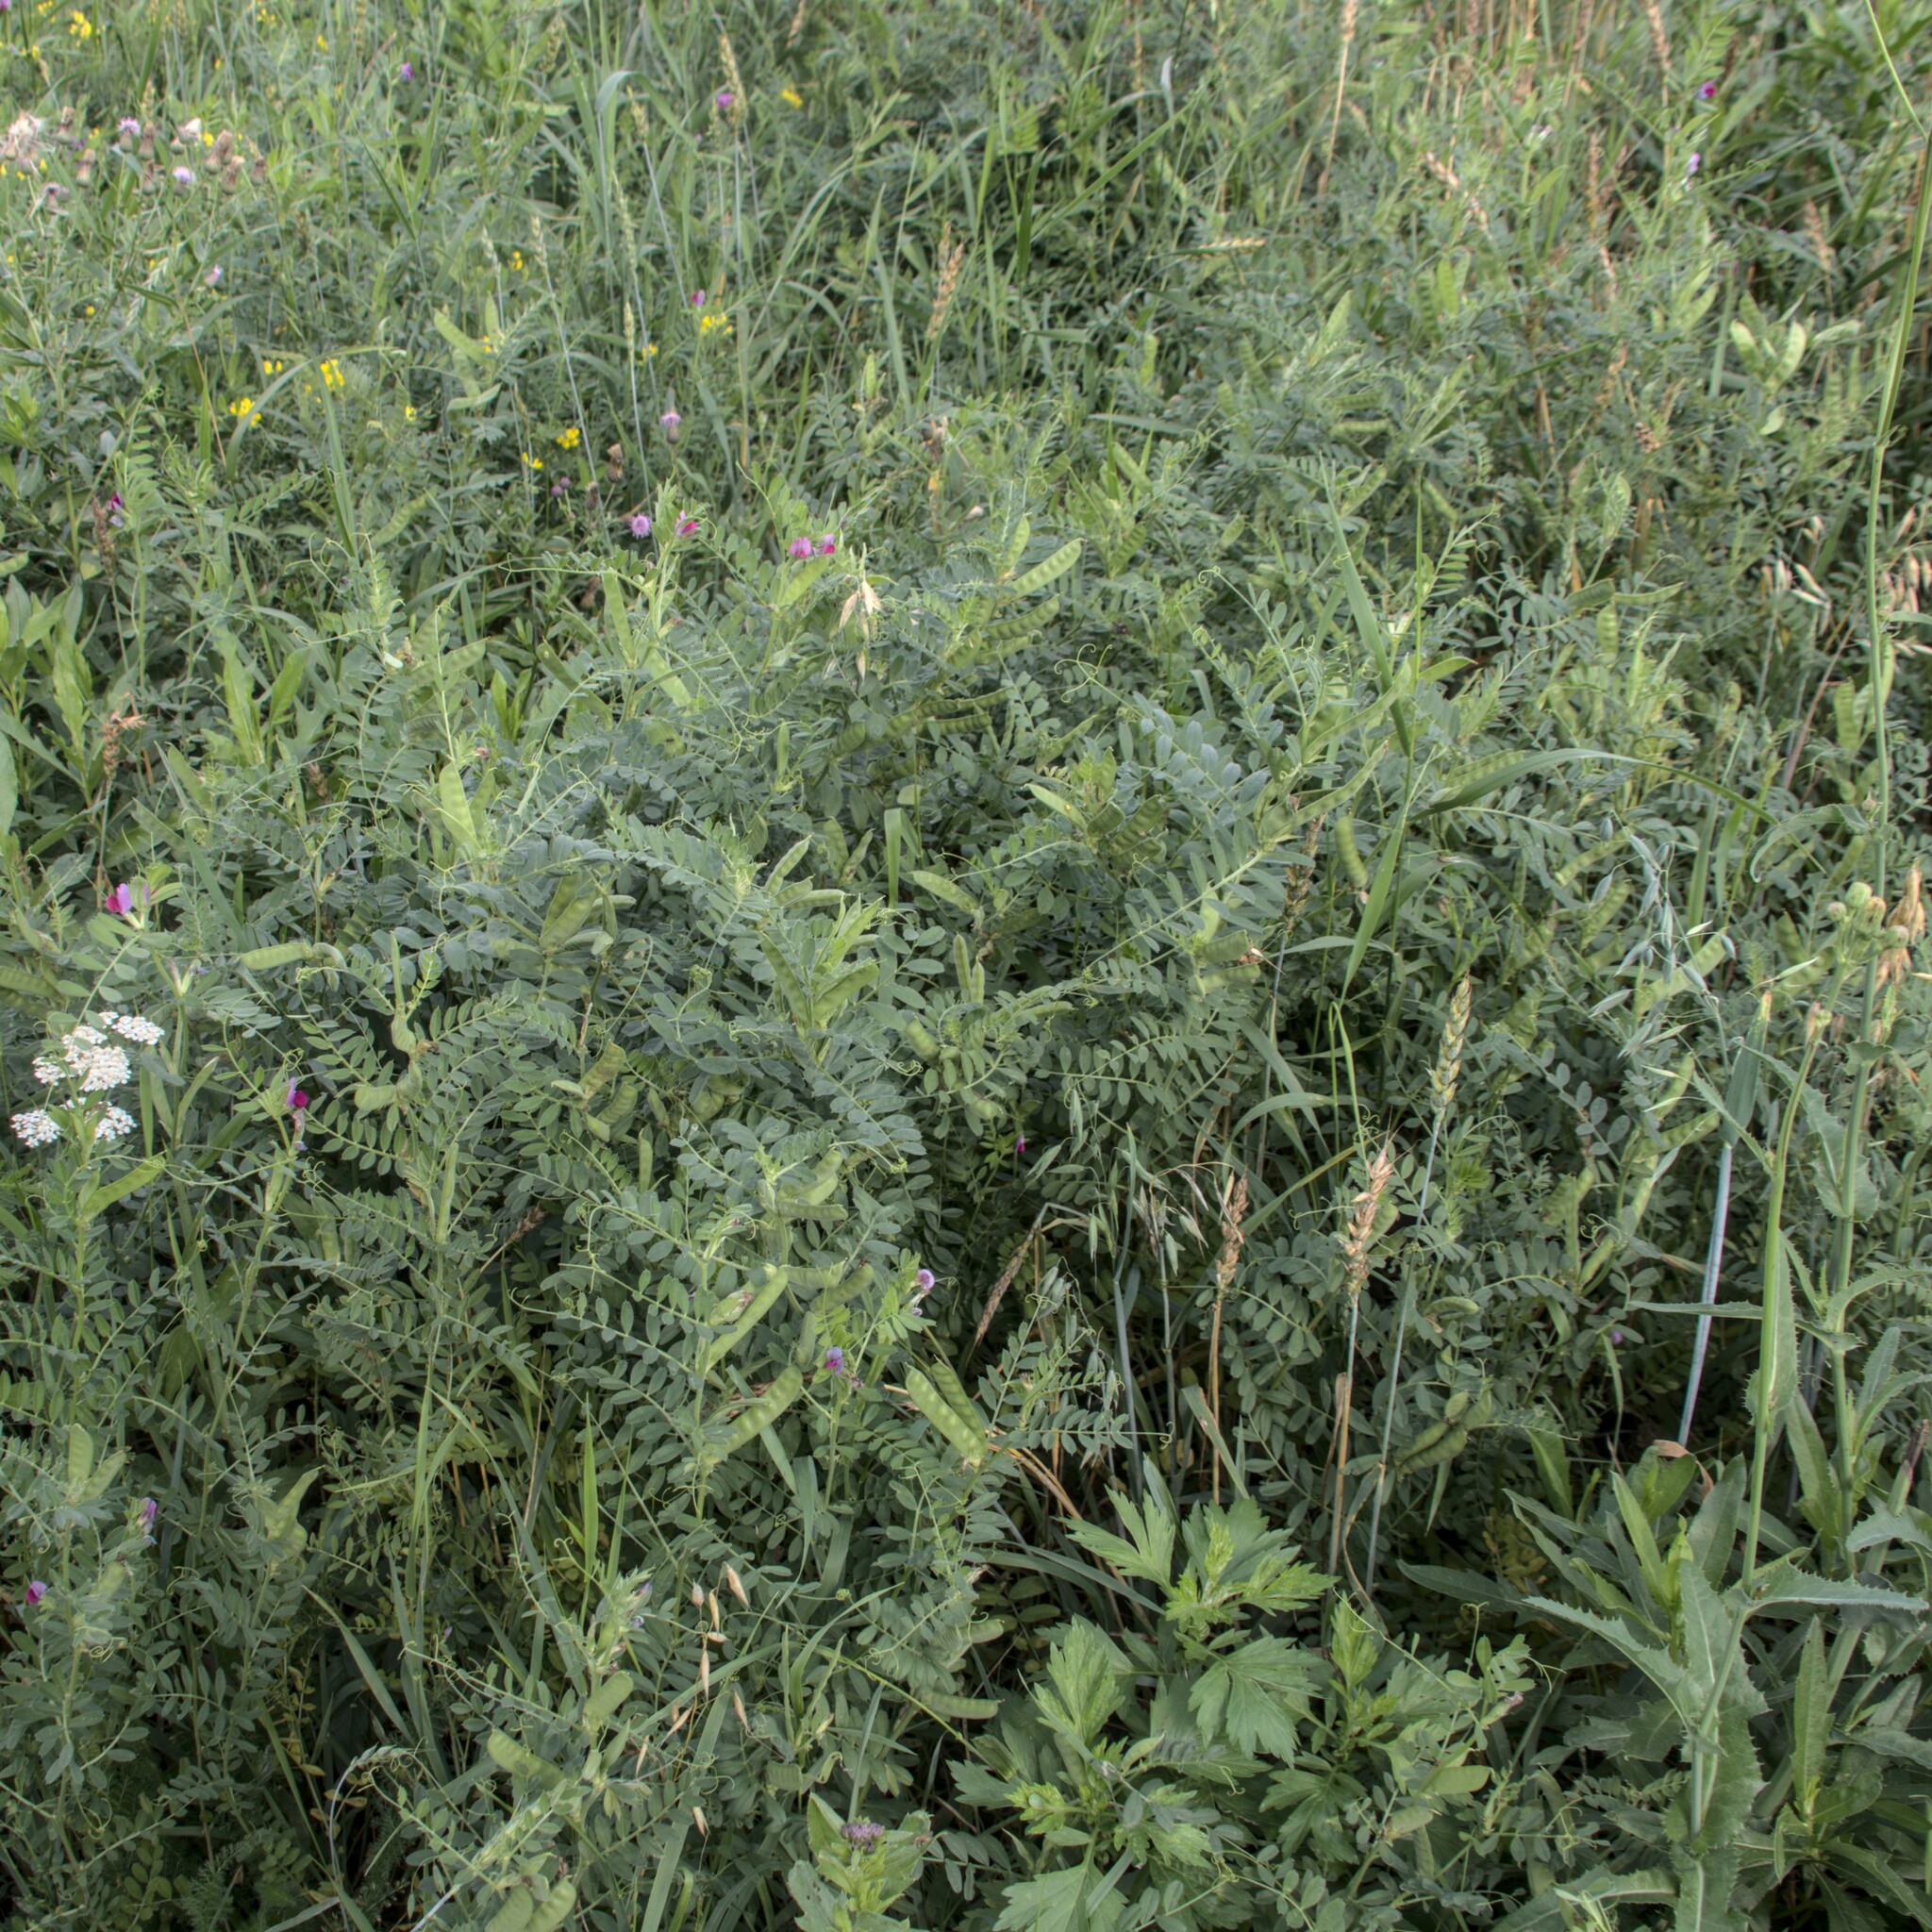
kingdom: Plantae
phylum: Tracheophyta
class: Magnoliopsida
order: Fabales
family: Fabaceae
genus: Vicia
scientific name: Vicia sativa
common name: Garden vetch
